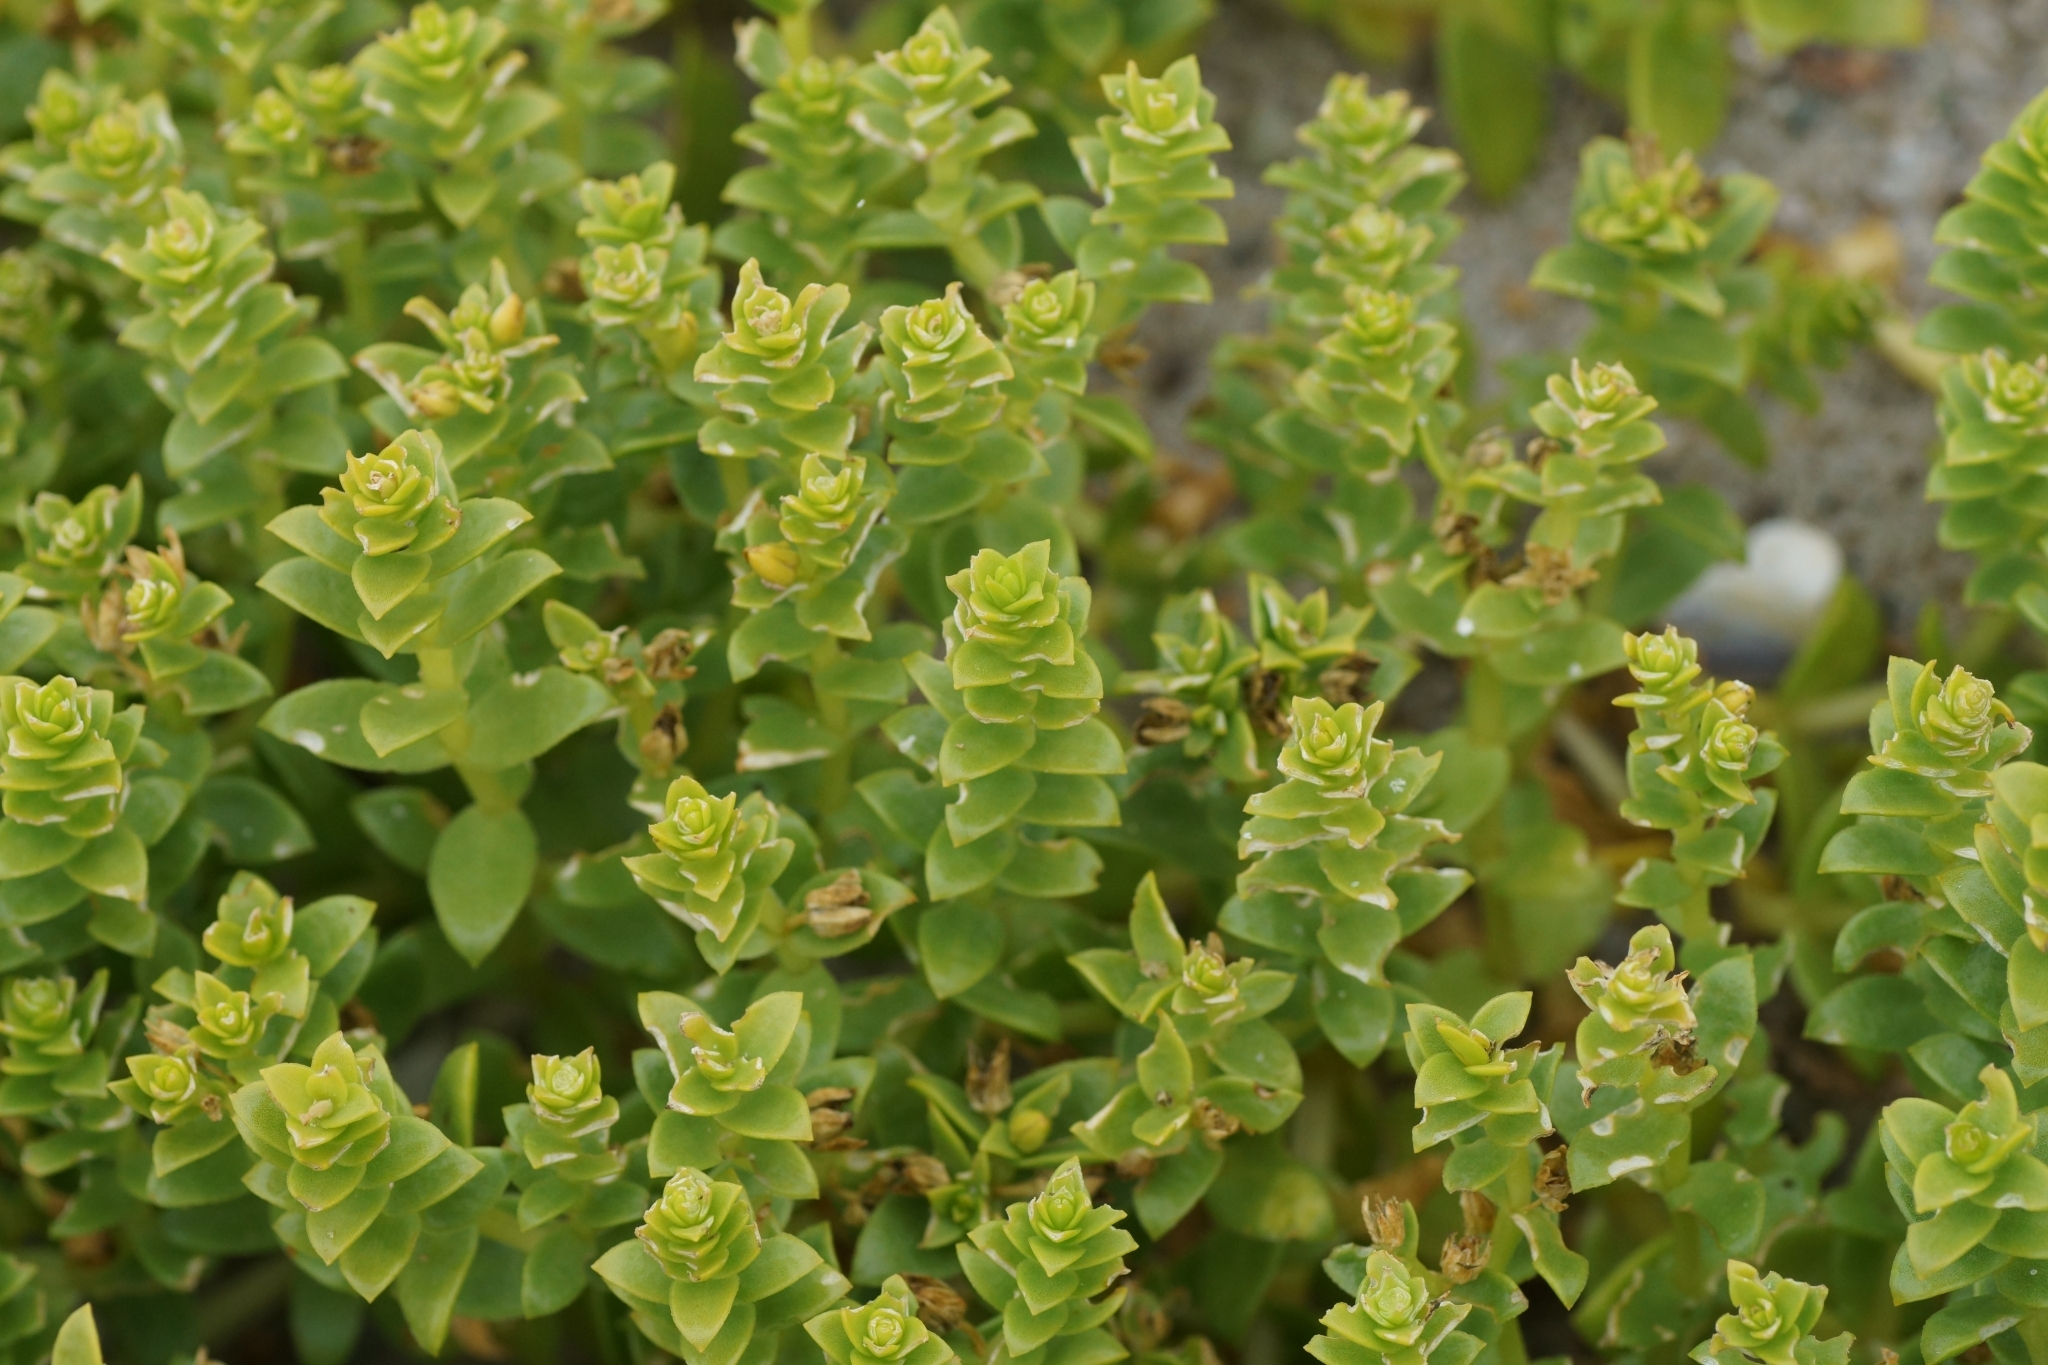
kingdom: Plantae
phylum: Tracheophyta
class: Magnoliopsida
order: Caryophyllales
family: Caryophyllaceae
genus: Honckenya
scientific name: Honckenya peploides
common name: Sea sandwort
